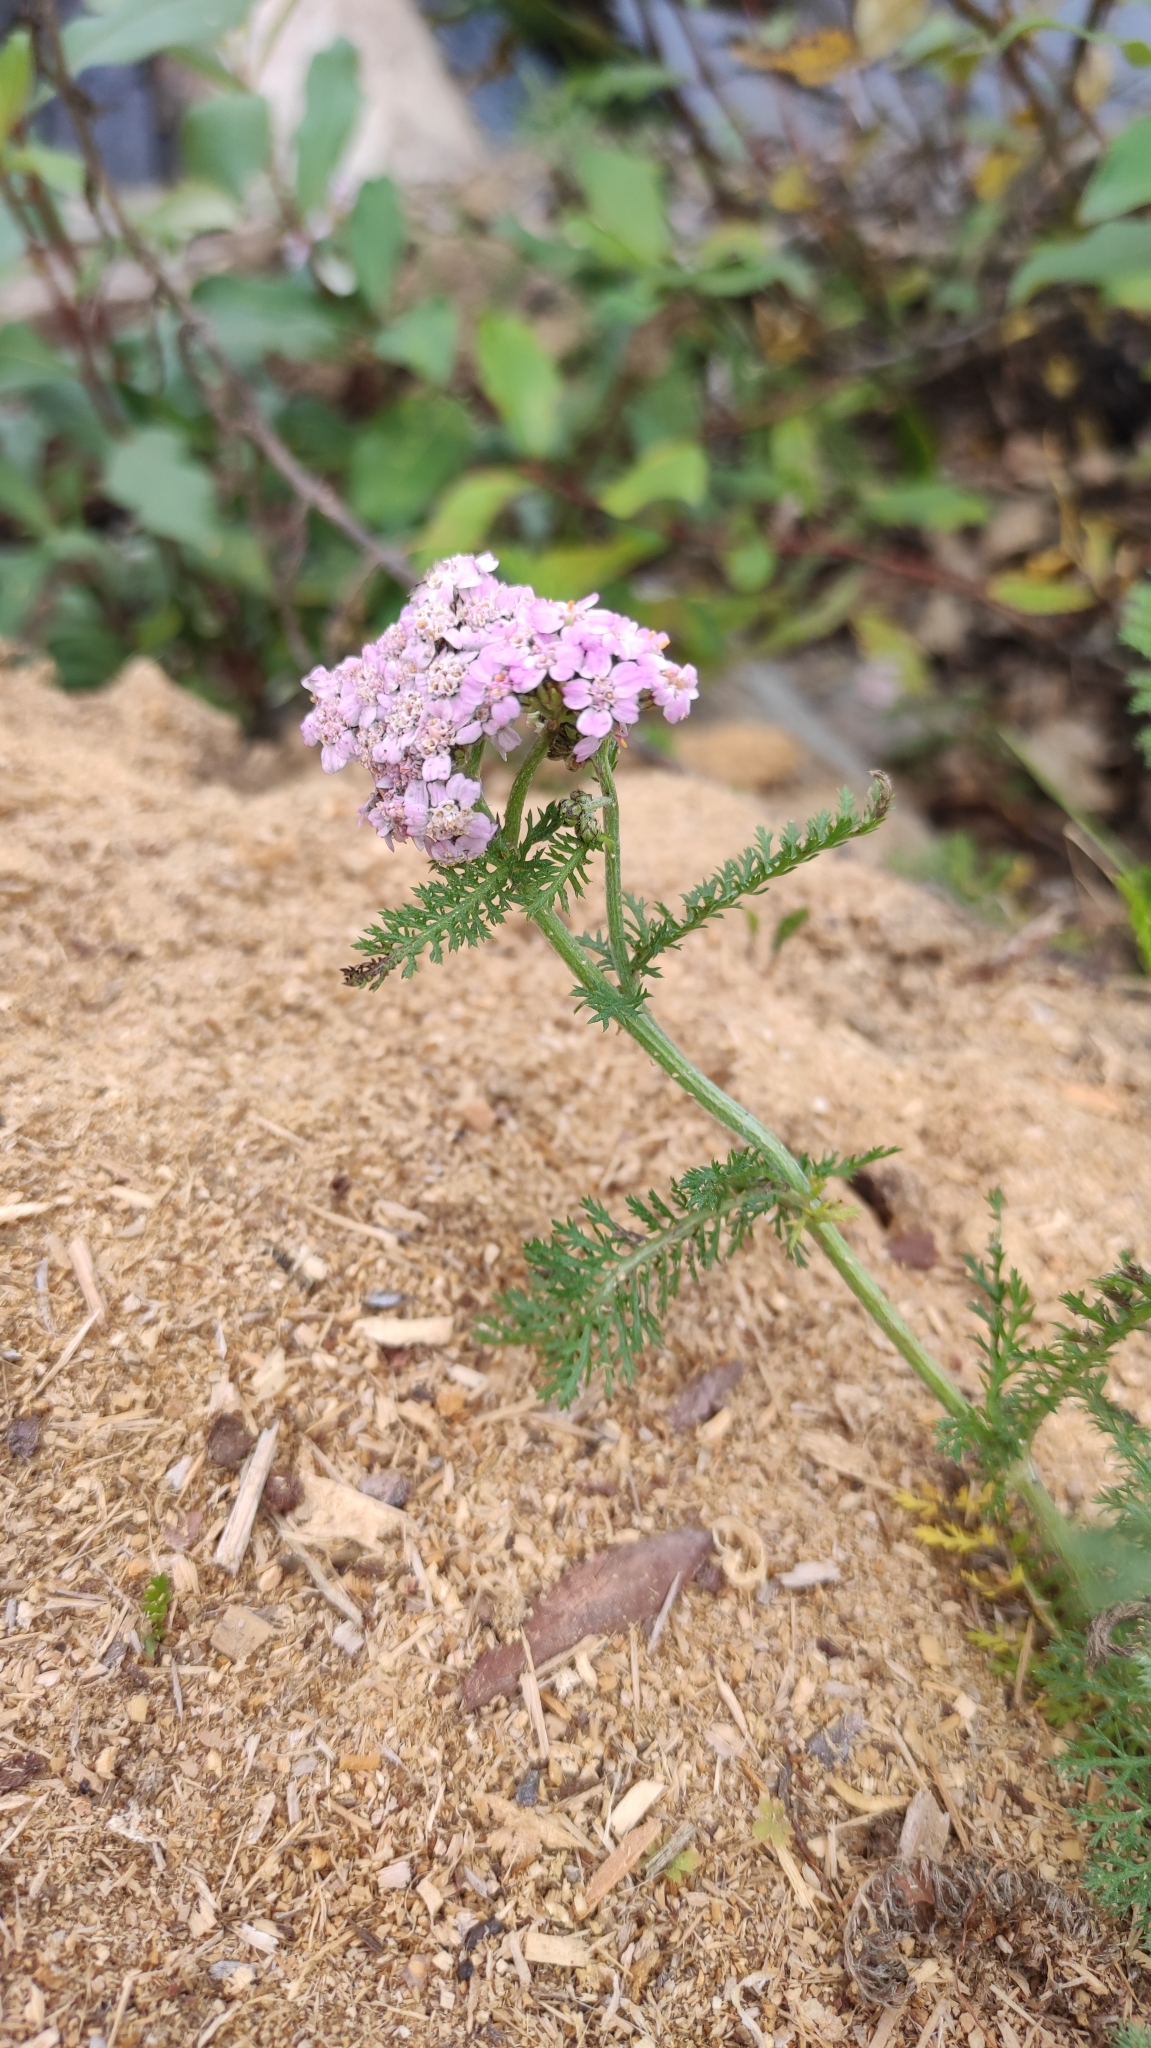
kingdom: Plantae
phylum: Tracheophyta
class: Magnoliopsida
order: Asterales
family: Asteraceae
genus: Achillea
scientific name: Achillea millefolium
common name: Yarrow
